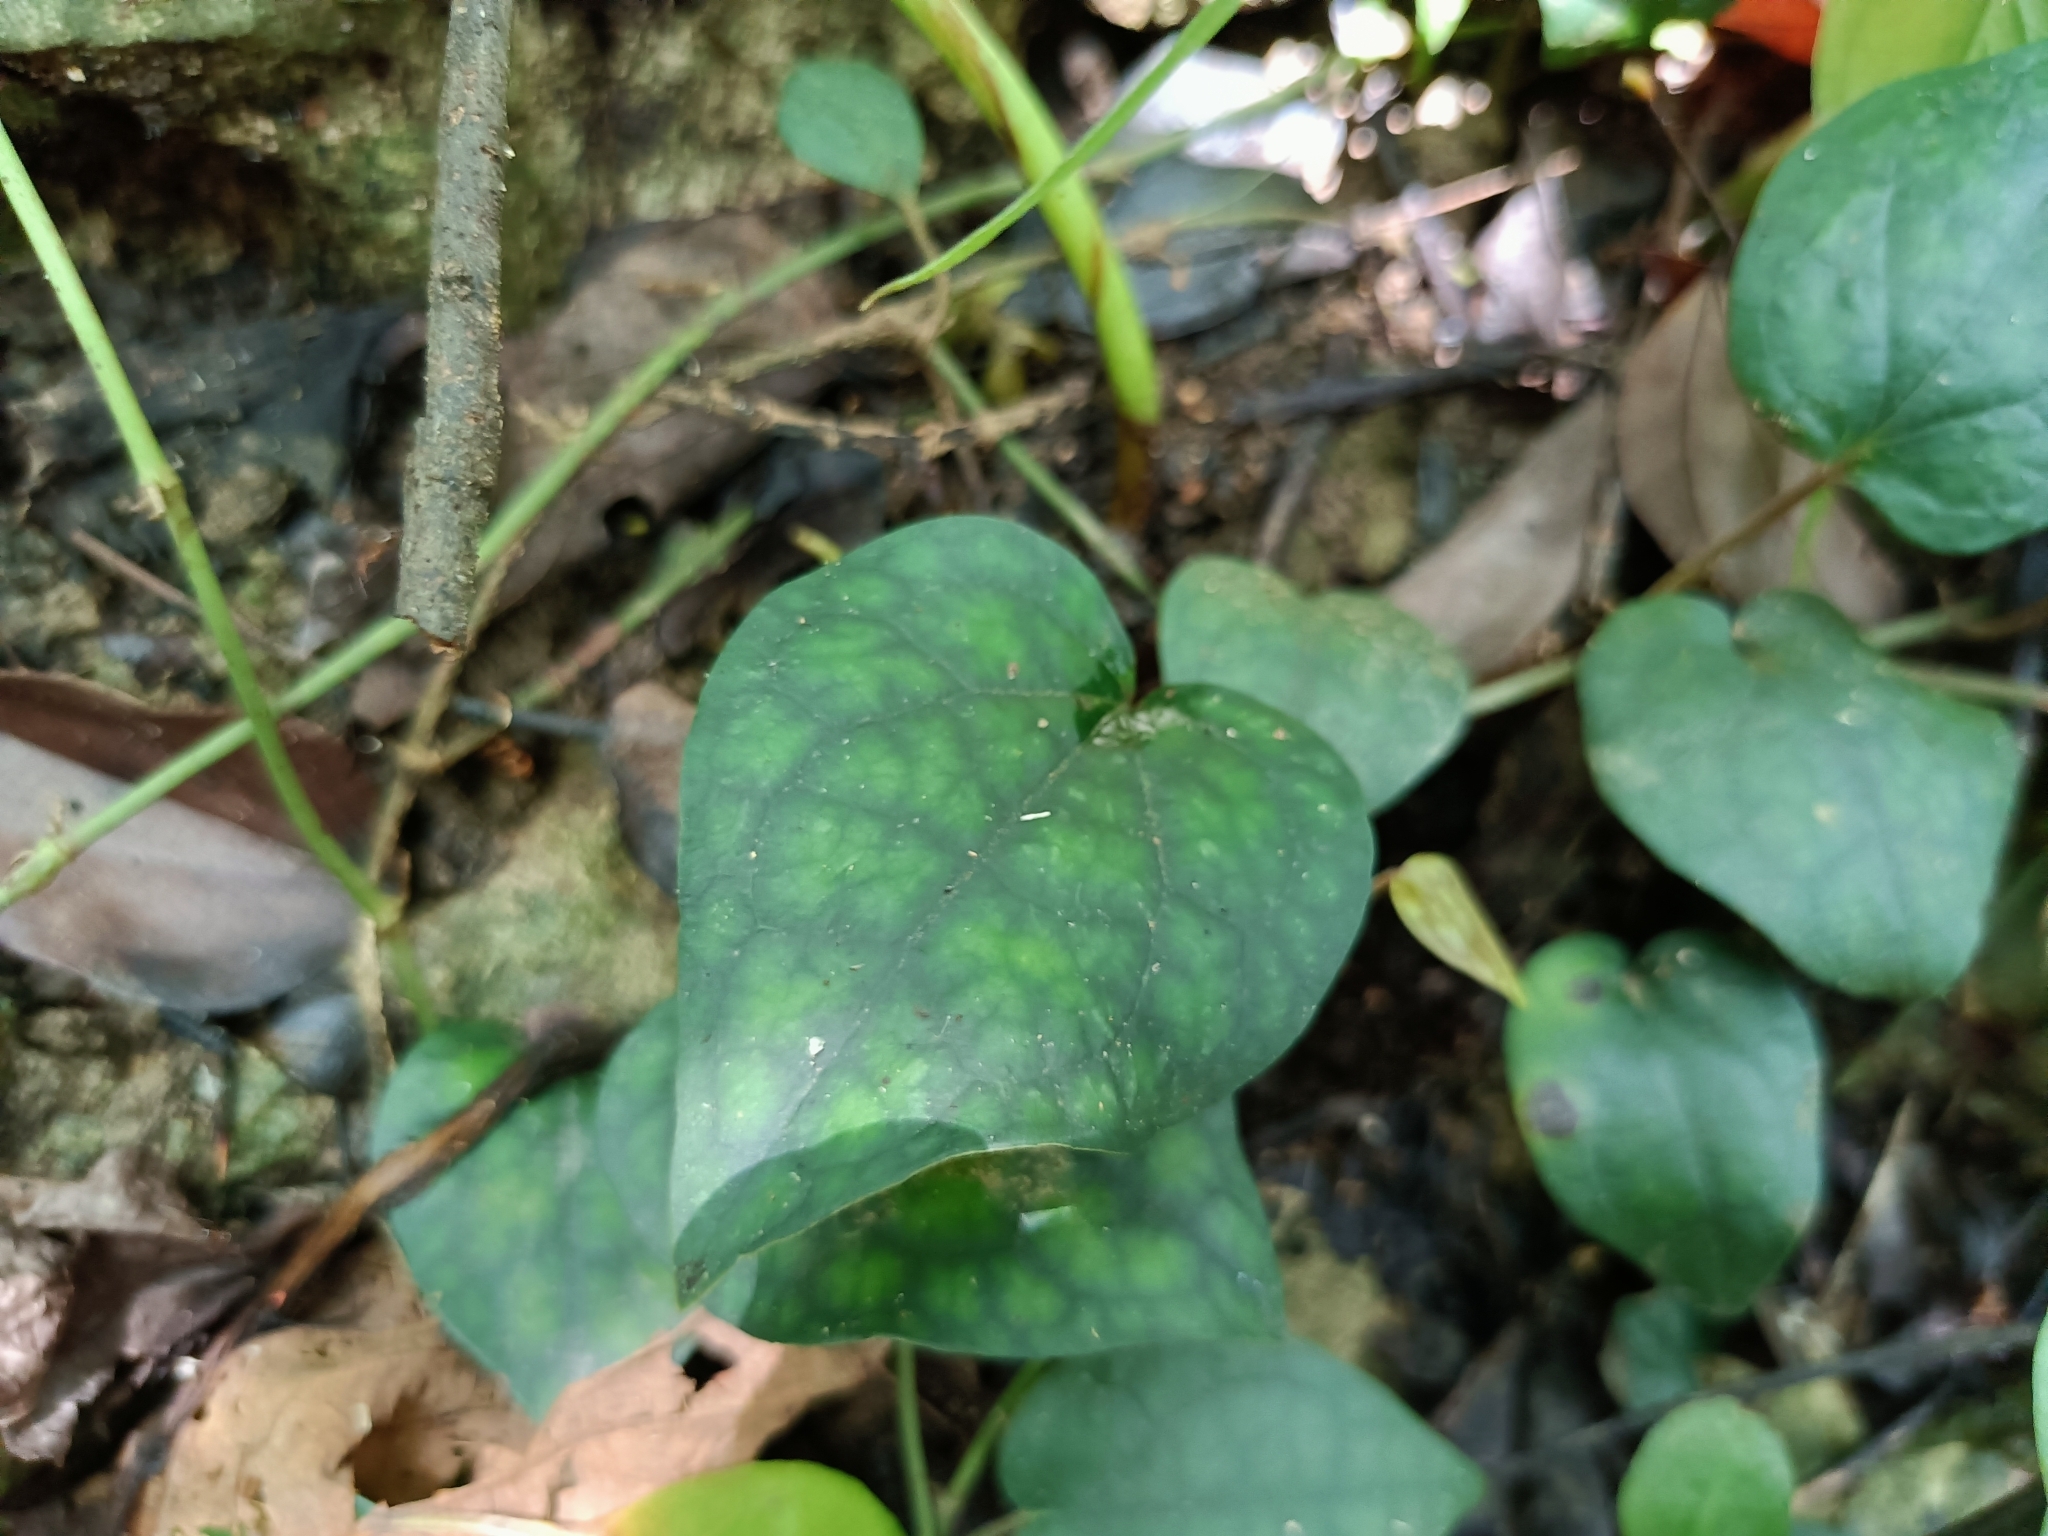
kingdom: Plantae
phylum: Tracheophyta
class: Magnoliopsida
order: Piperales
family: Piperaceae
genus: Piper
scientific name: Piper kadsura
